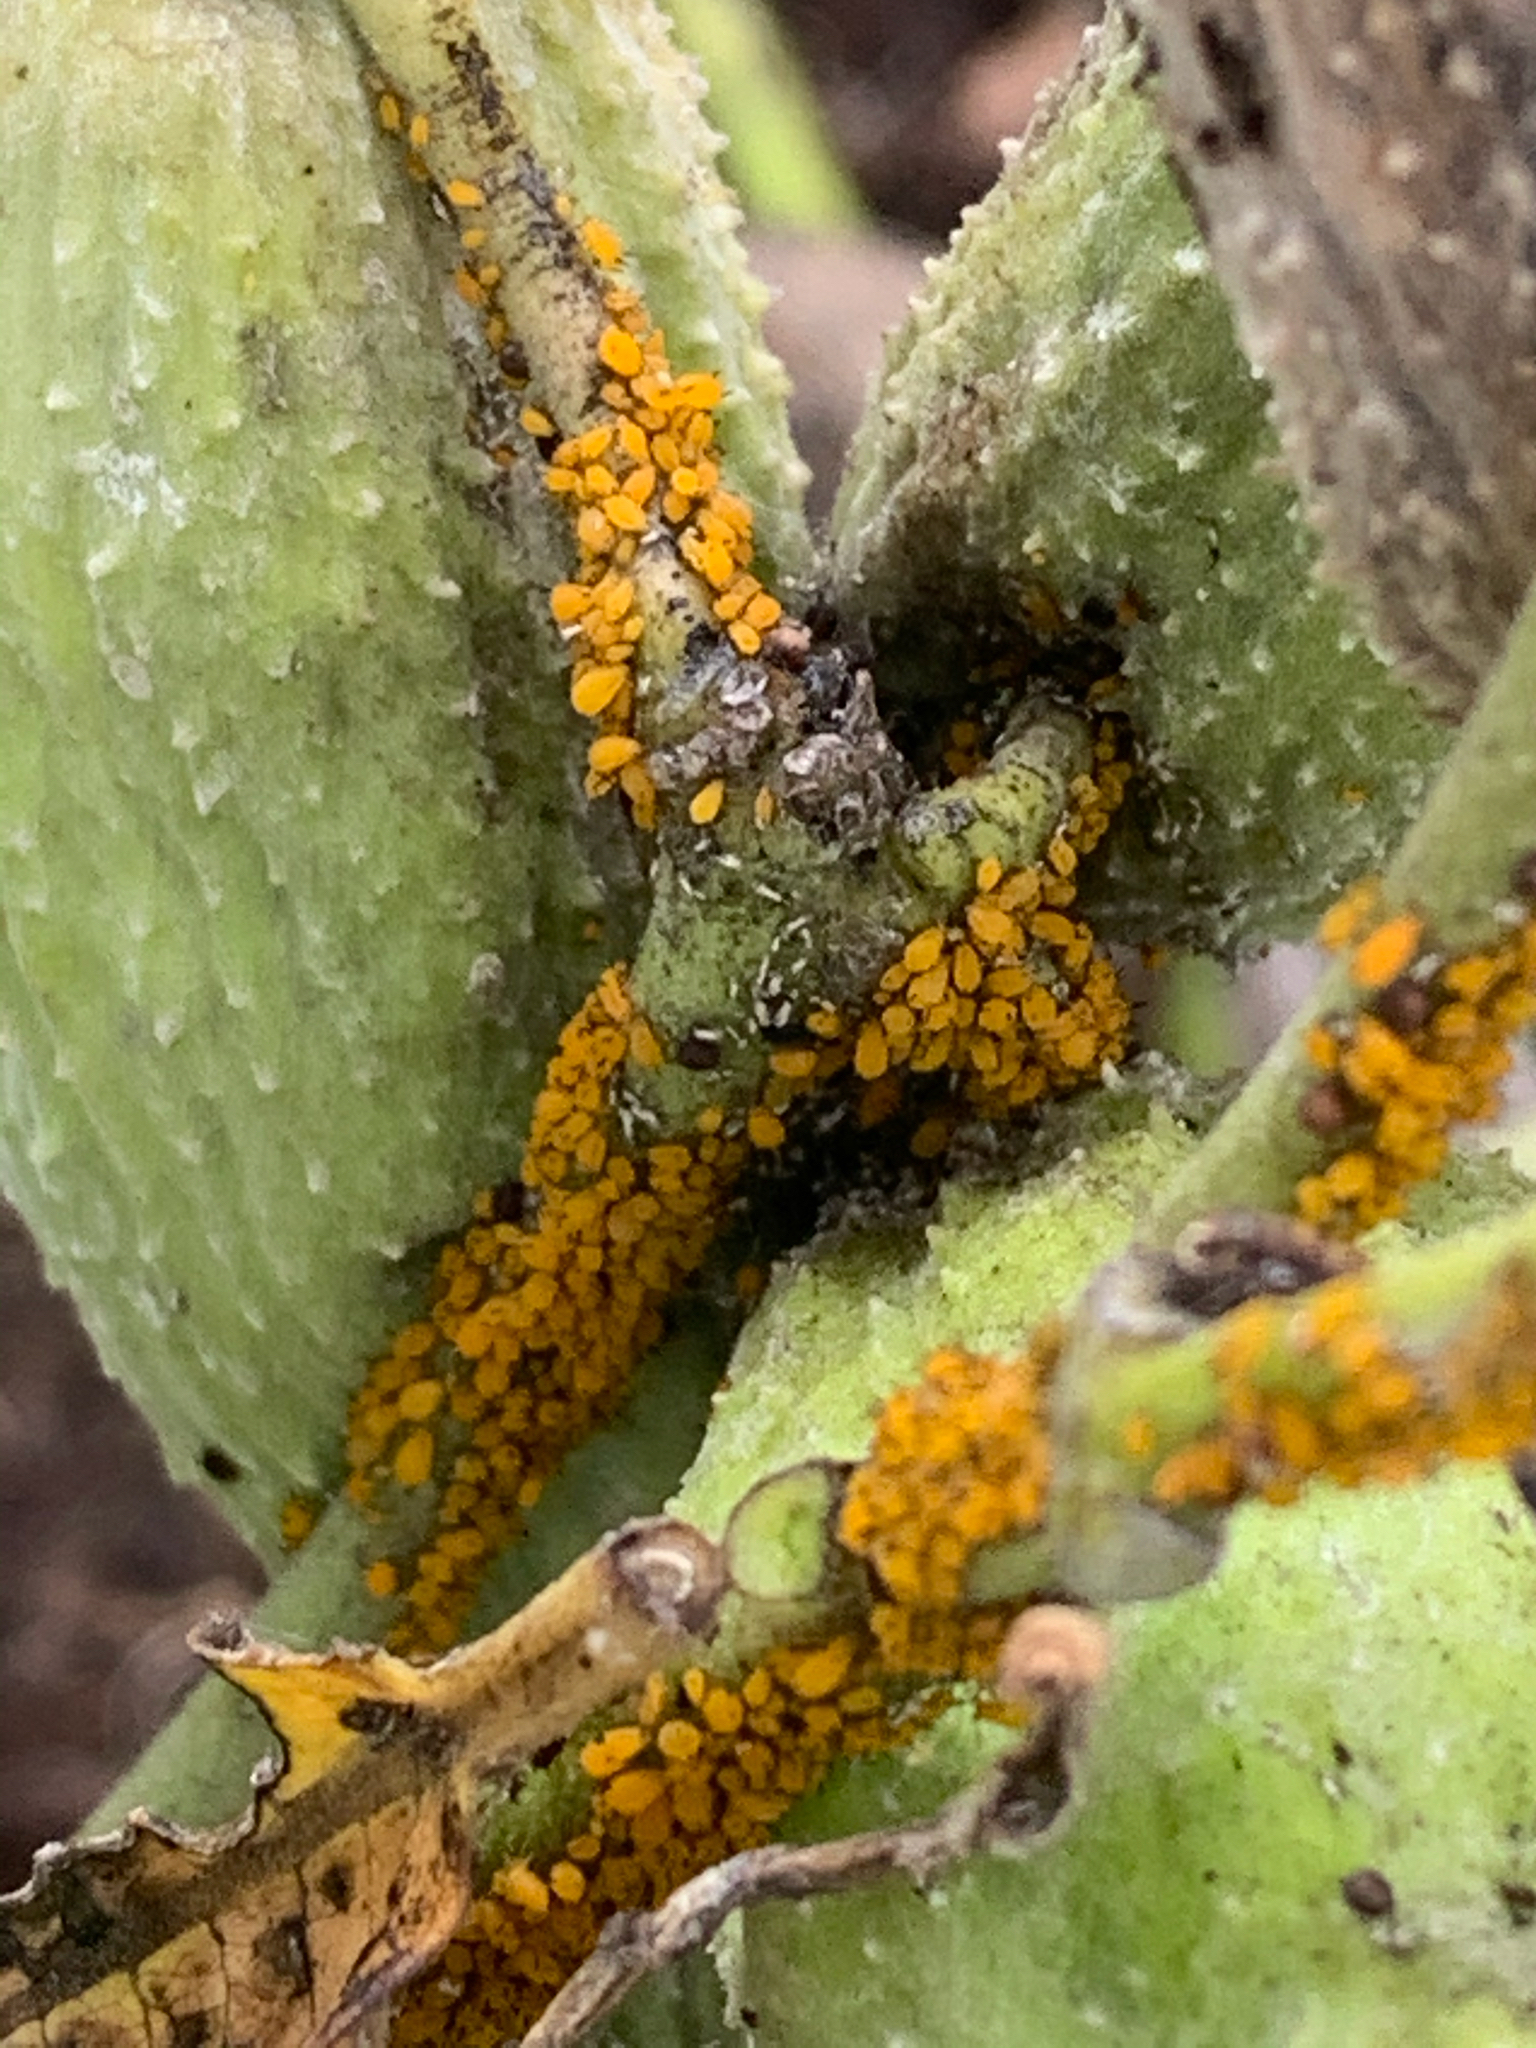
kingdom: Animalia
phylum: Arthropoda
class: Insecta
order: Hemiptera
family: Aphididae
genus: Aphis
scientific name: Aphis nerii
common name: Oleander aphid
